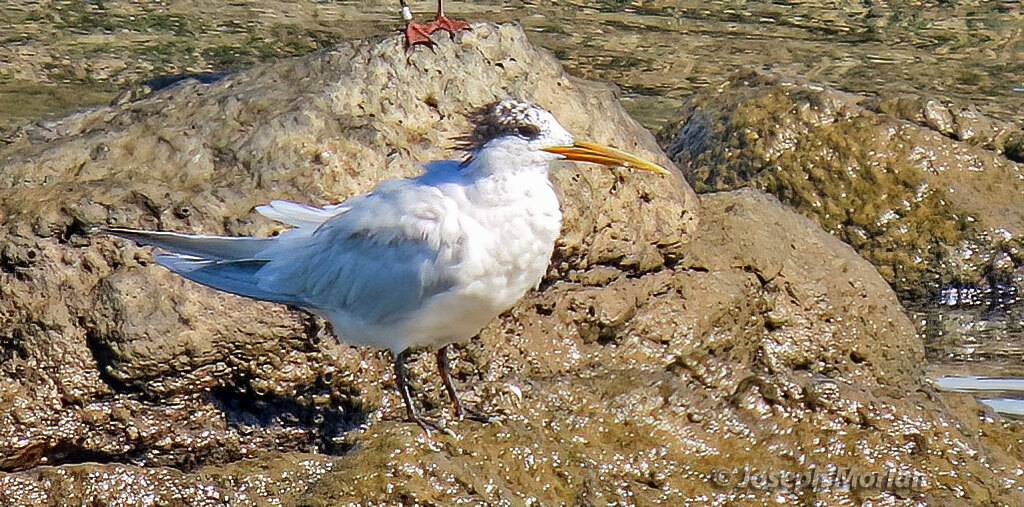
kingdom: Animalia
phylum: Chordata
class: Aves
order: Charadriiformes
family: Laridae
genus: Thalasseus
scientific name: Thalasseus sandvicensis
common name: Sandwich tern
